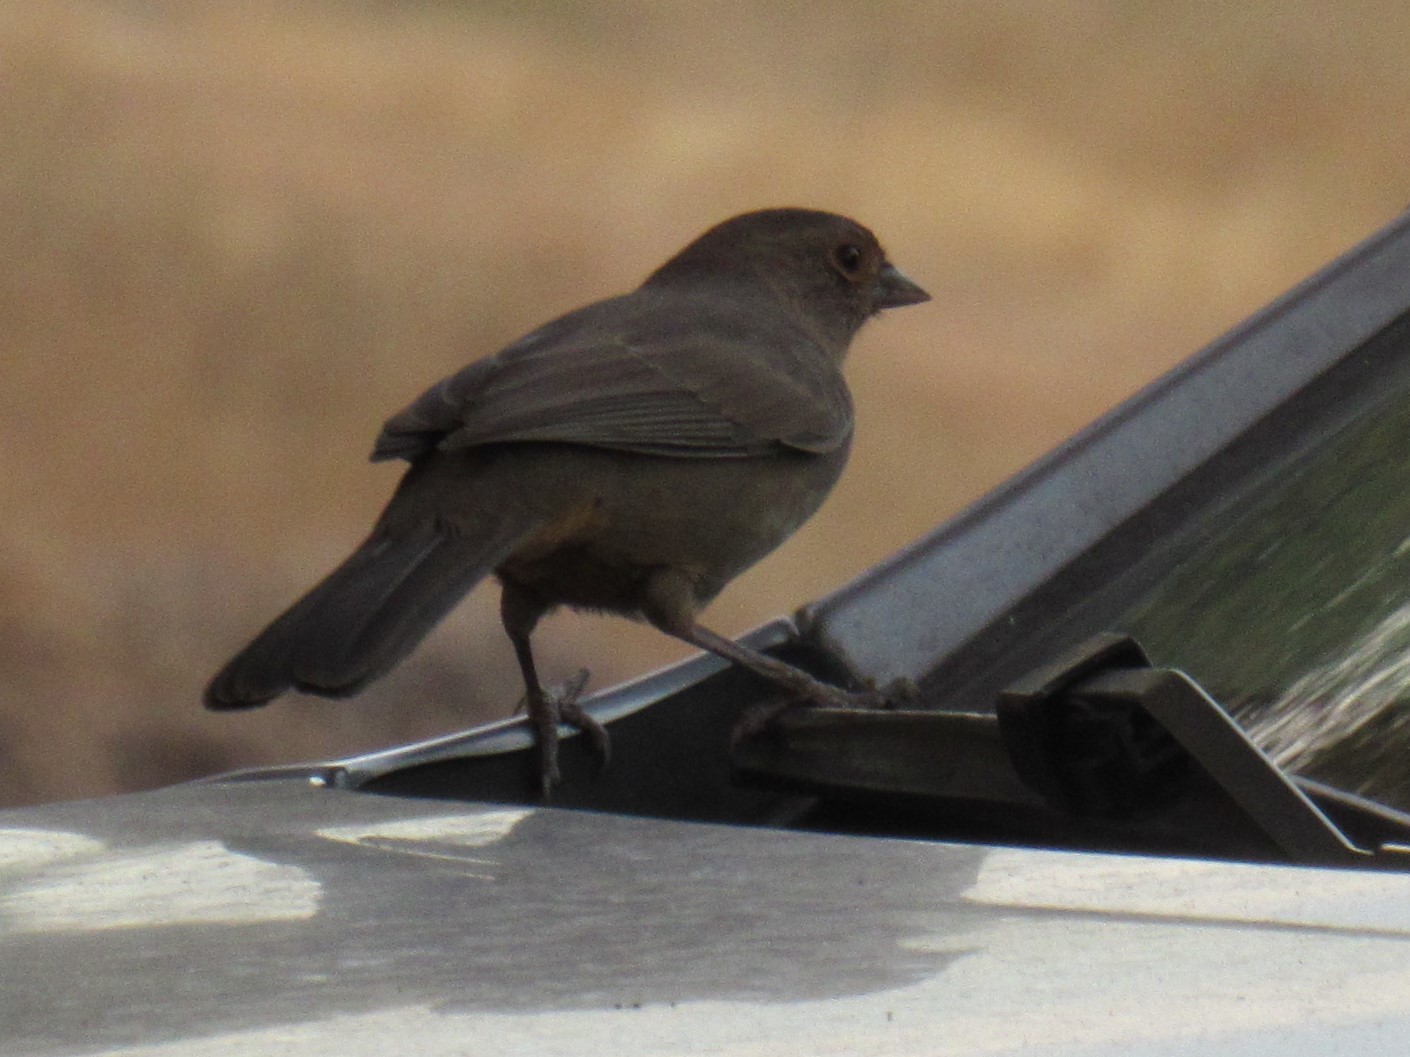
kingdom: Animalia
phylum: Chordata
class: Aves
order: Passeriformes
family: Passerellidae
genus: Melozone
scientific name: Melozone crissalis
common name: California towhee
